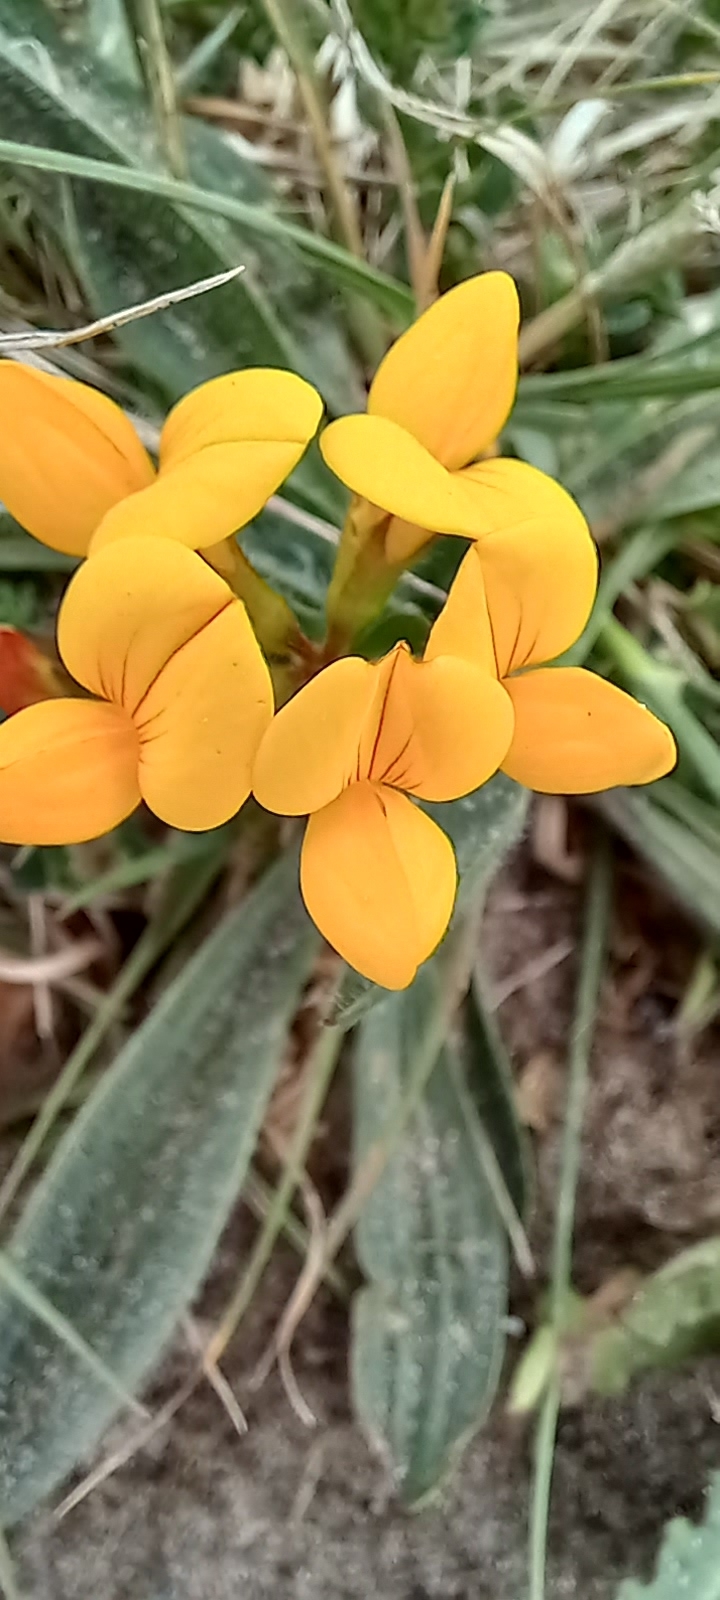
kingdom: Plantae
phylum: Tracheophyta
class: Magnoliopsida
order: Fabales
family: Fabaceae
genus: Lotus
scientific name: Lotus corniculatus
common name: Common bird's-foot-trefoil
